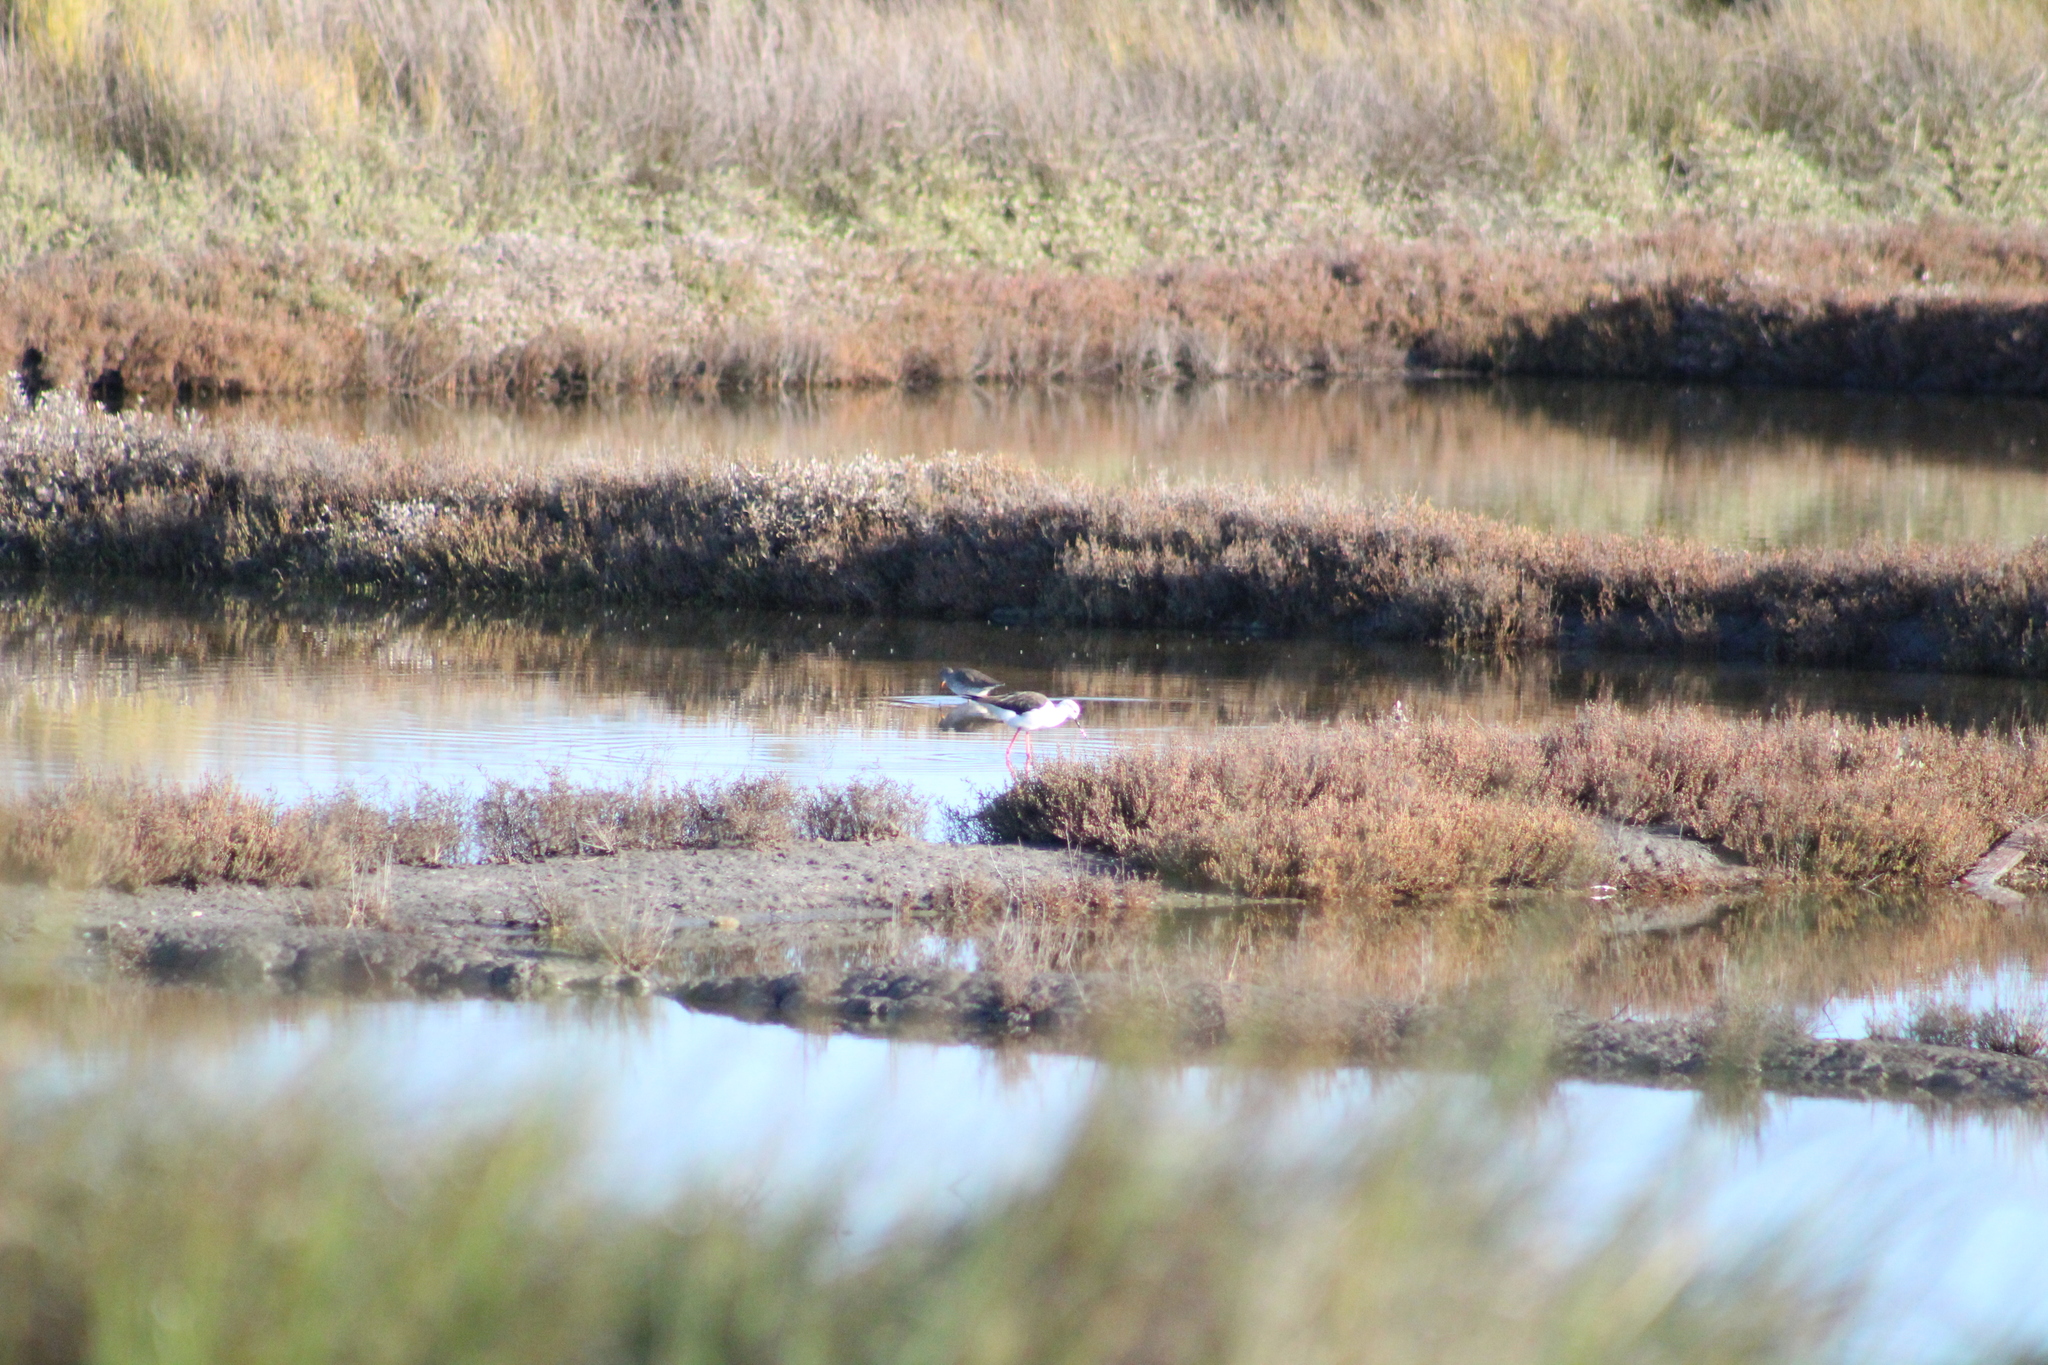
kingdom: Animalia
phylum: Chordata
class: Aves
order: Charadriiformes
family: Recurvirostridae
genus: Himantopus
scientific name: Himantopus himantopus
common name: Black-winged stilt
